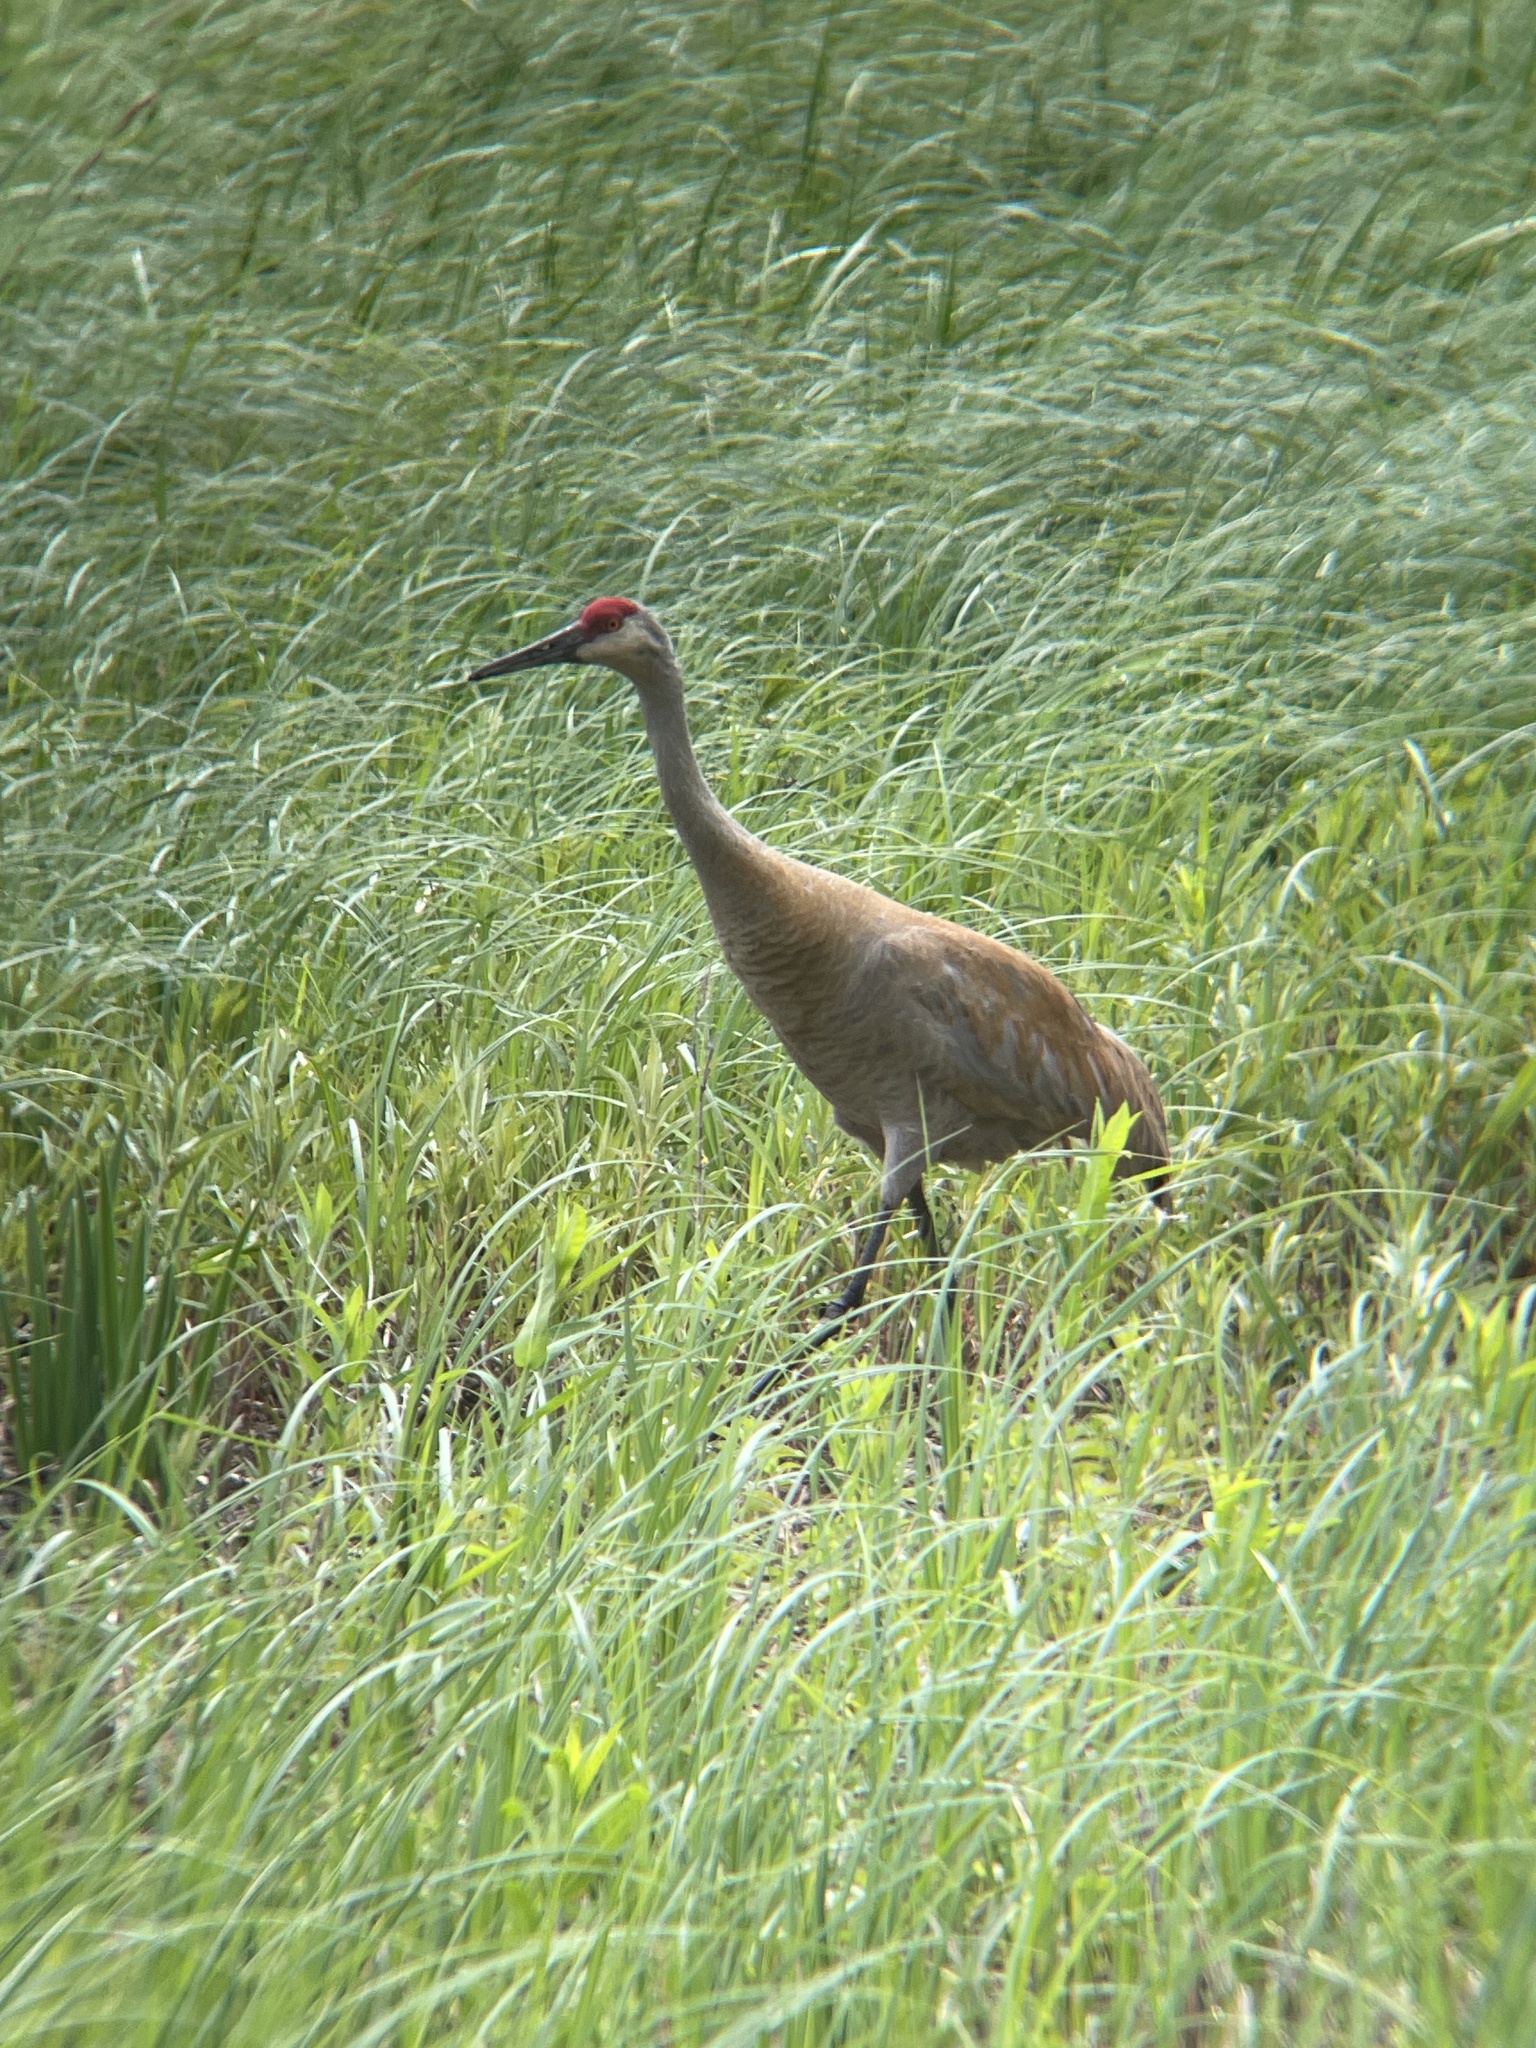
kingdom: Animalia
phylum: Chordata
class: Aves
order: Gruiformes
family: Gruidae
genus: Grus
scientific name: Grus canadensis
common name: Sandhill crane
